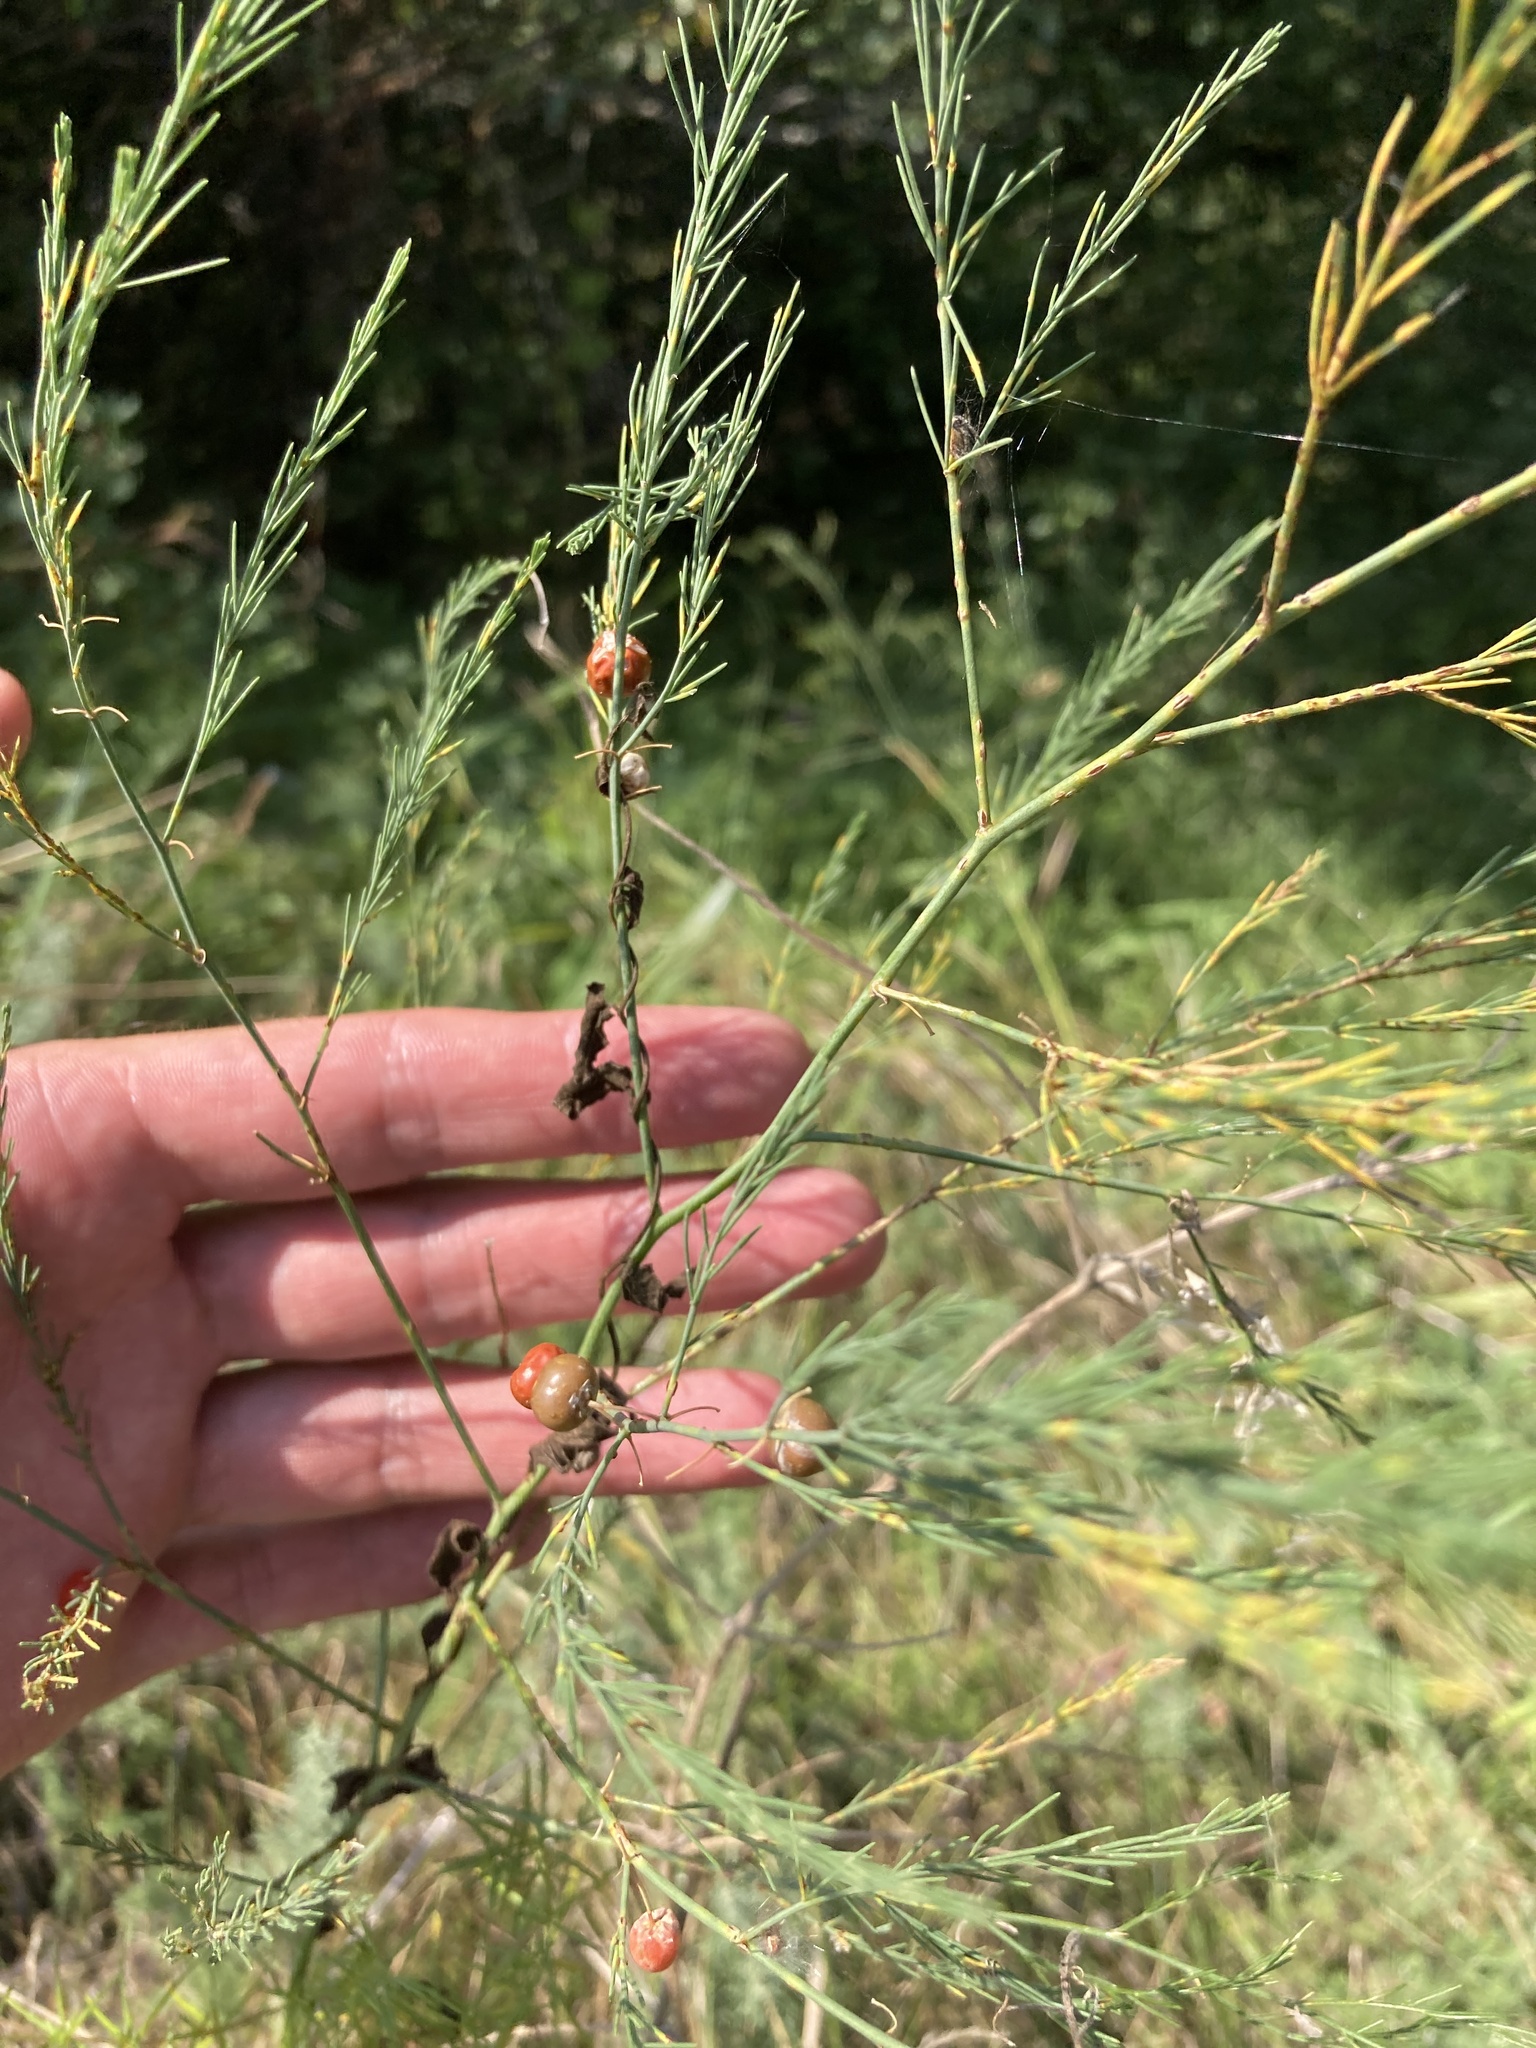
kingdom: Plantae
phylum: Tracheophyta
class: Liliopsida
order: Asparagales
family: Asparagaceae
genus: Asparagus
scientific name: Asparagus officinalis
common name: Garden asparagus
